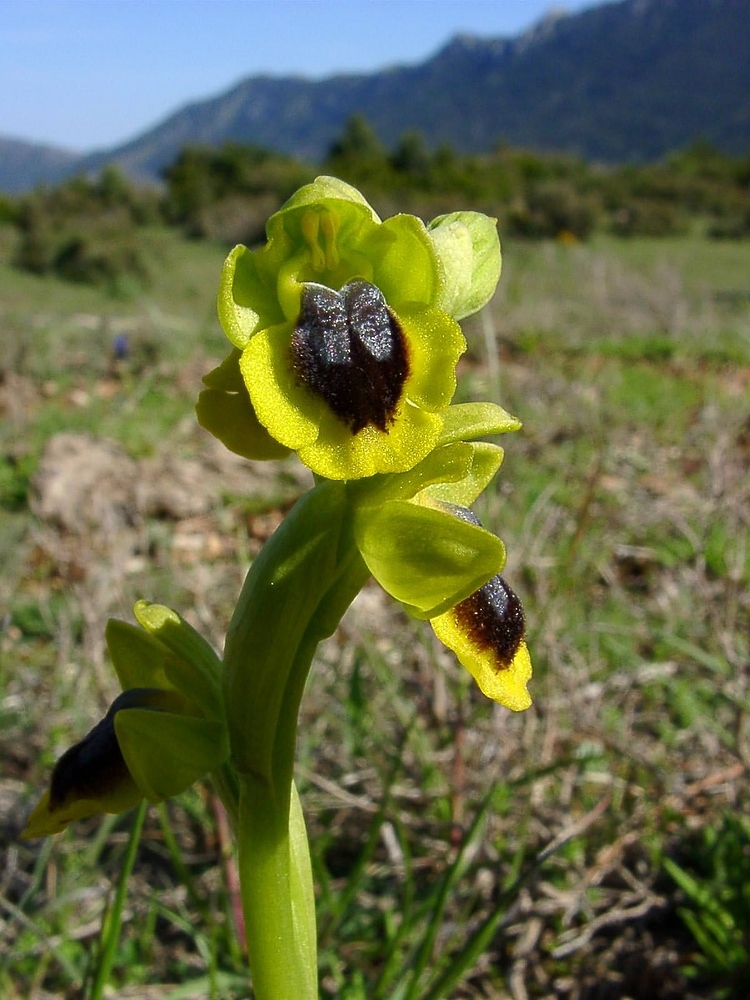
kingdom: Plantae
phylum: Tracheophyta
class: Liliopsida
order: Asparagales
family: Orchidaceae
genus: Ophrys
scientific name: Ophrys lutea
